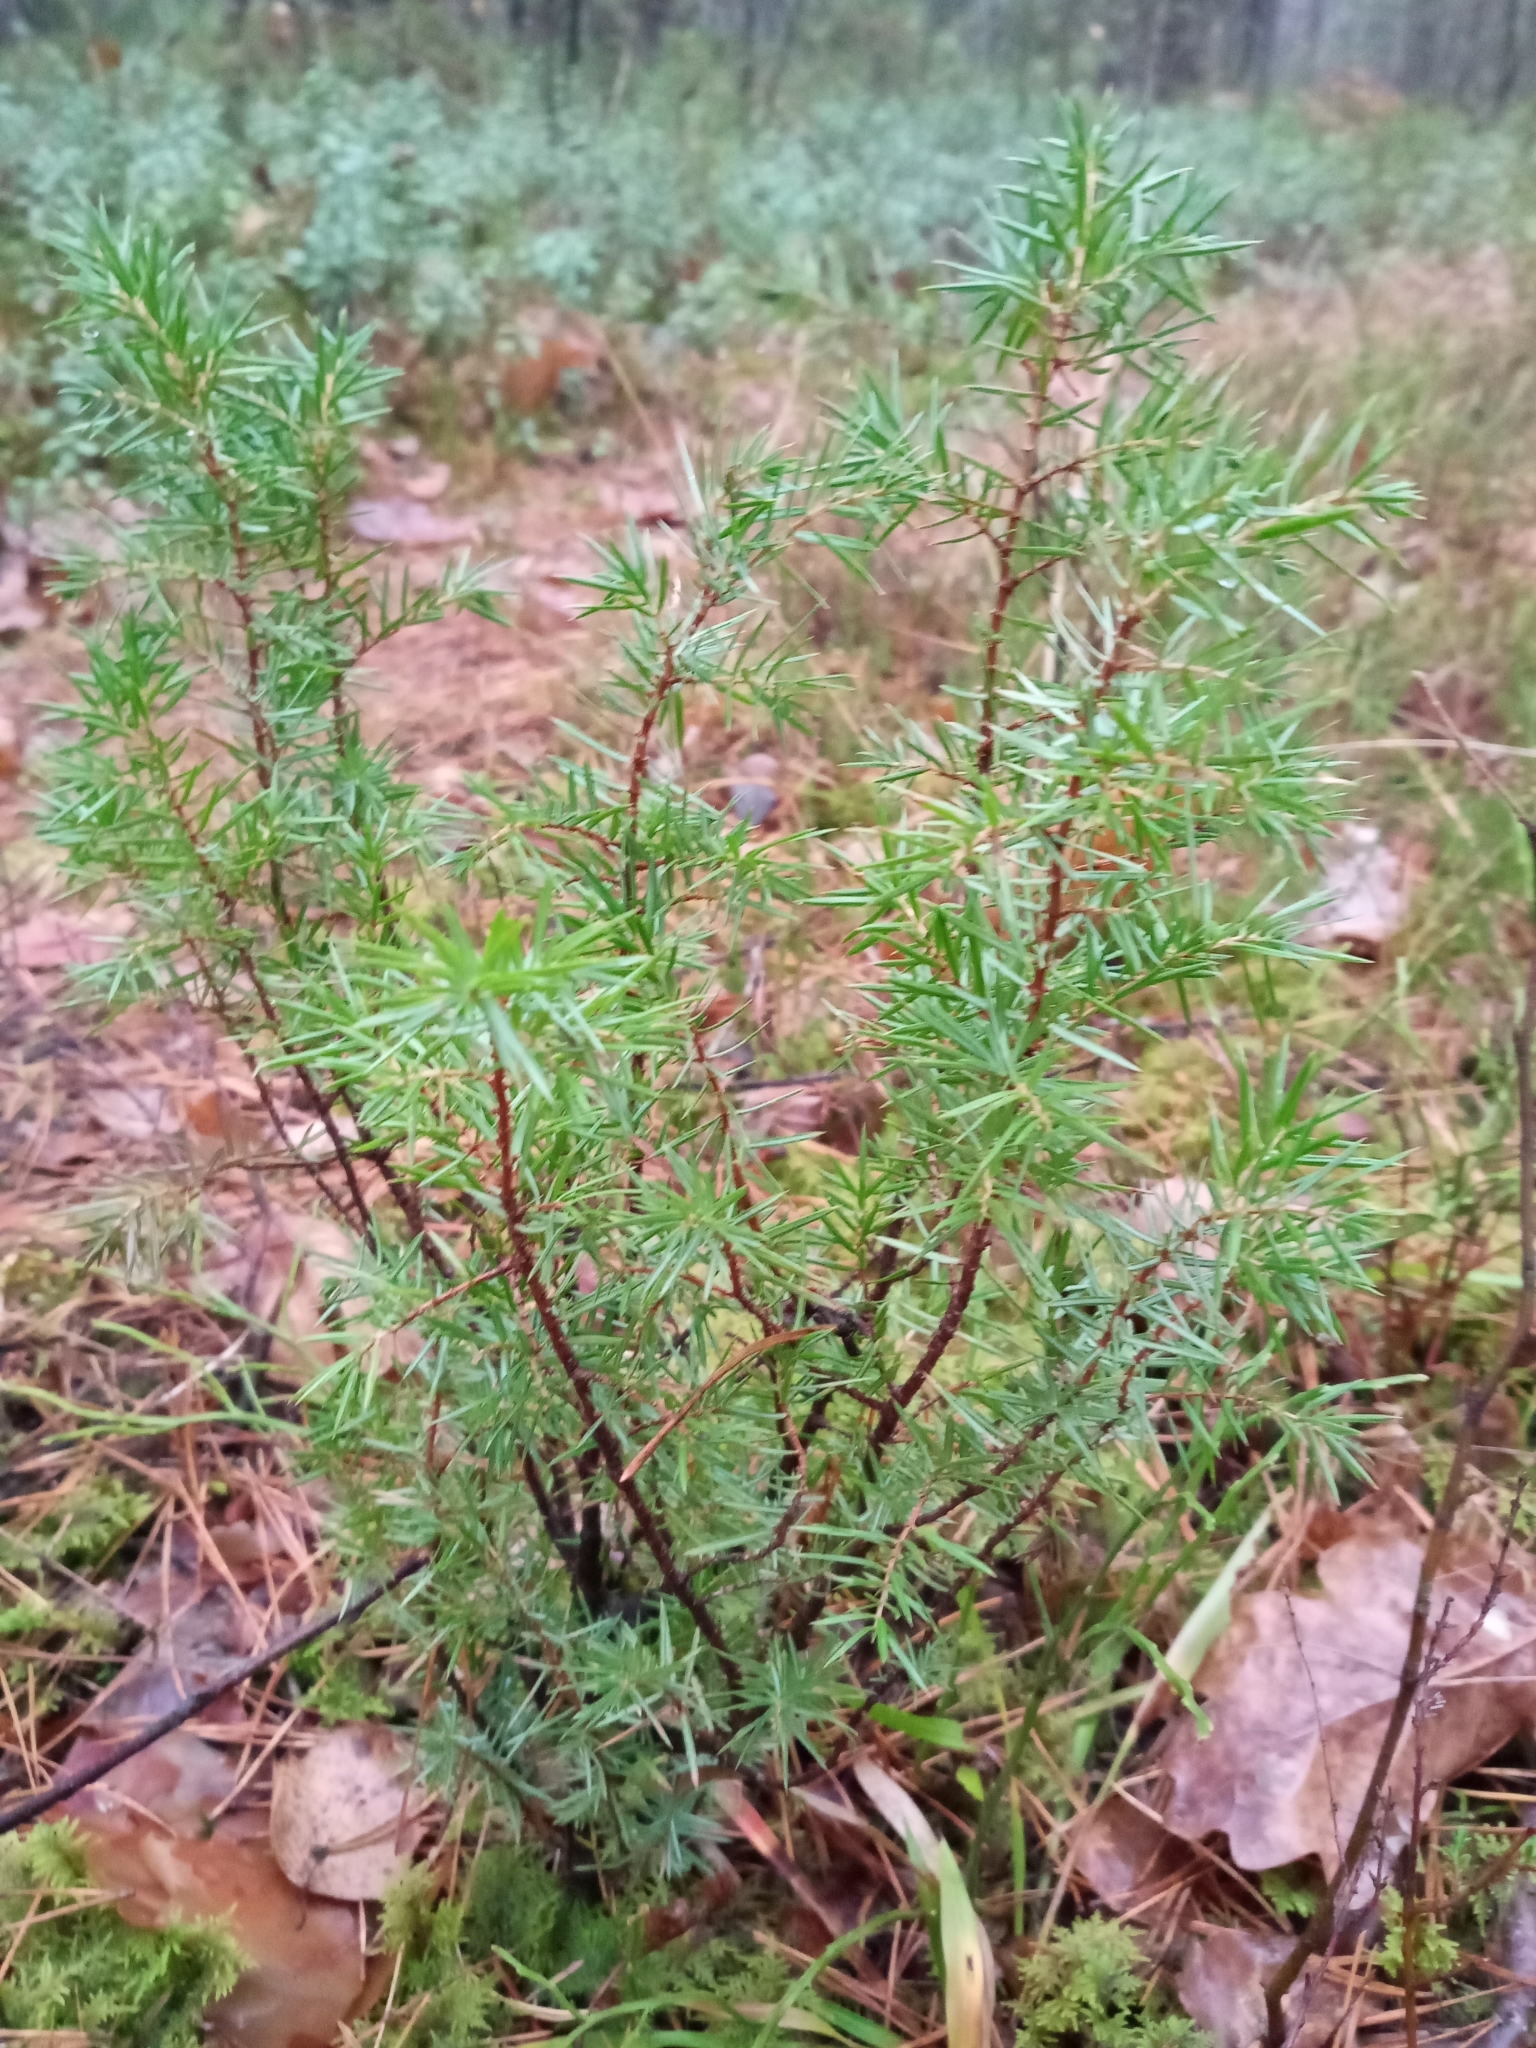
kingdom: Plantae
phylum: Tracheophyta
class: Pinopsida
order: Pinales
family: Cupressaceae
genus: Juniperus
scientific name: Juniperus communis
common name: Common juniper
